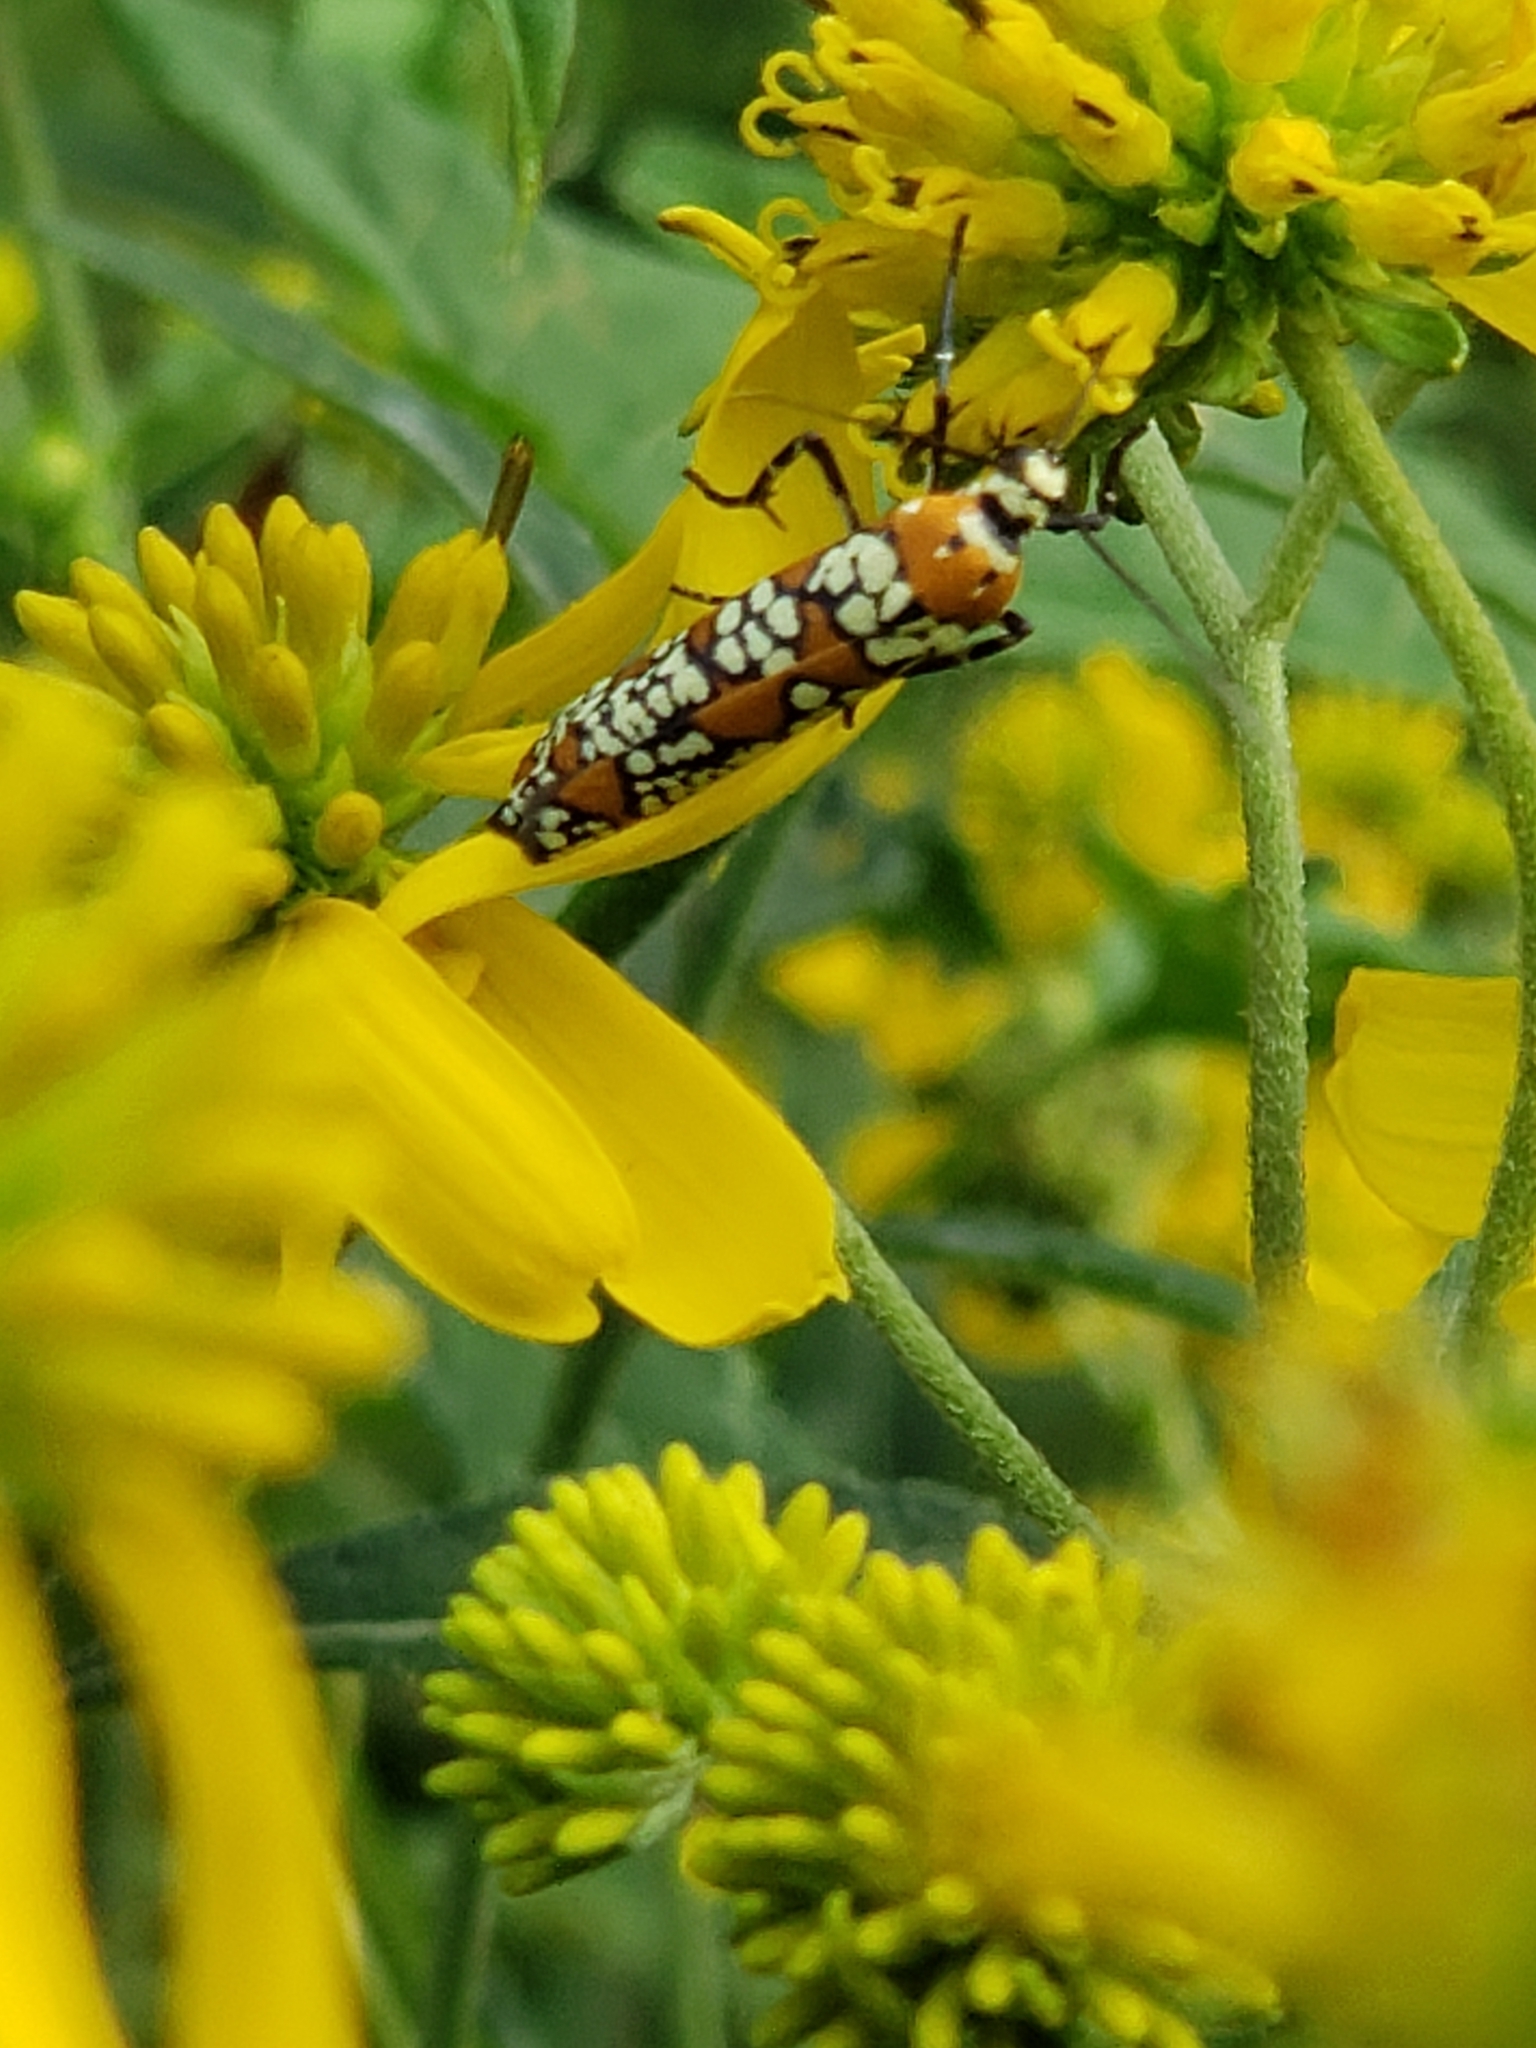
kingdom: Animalia
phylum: Arthropoda
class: Insecta
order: Lepidoptera
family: Attevidae
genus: Atteva
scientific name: Atteva punctella
